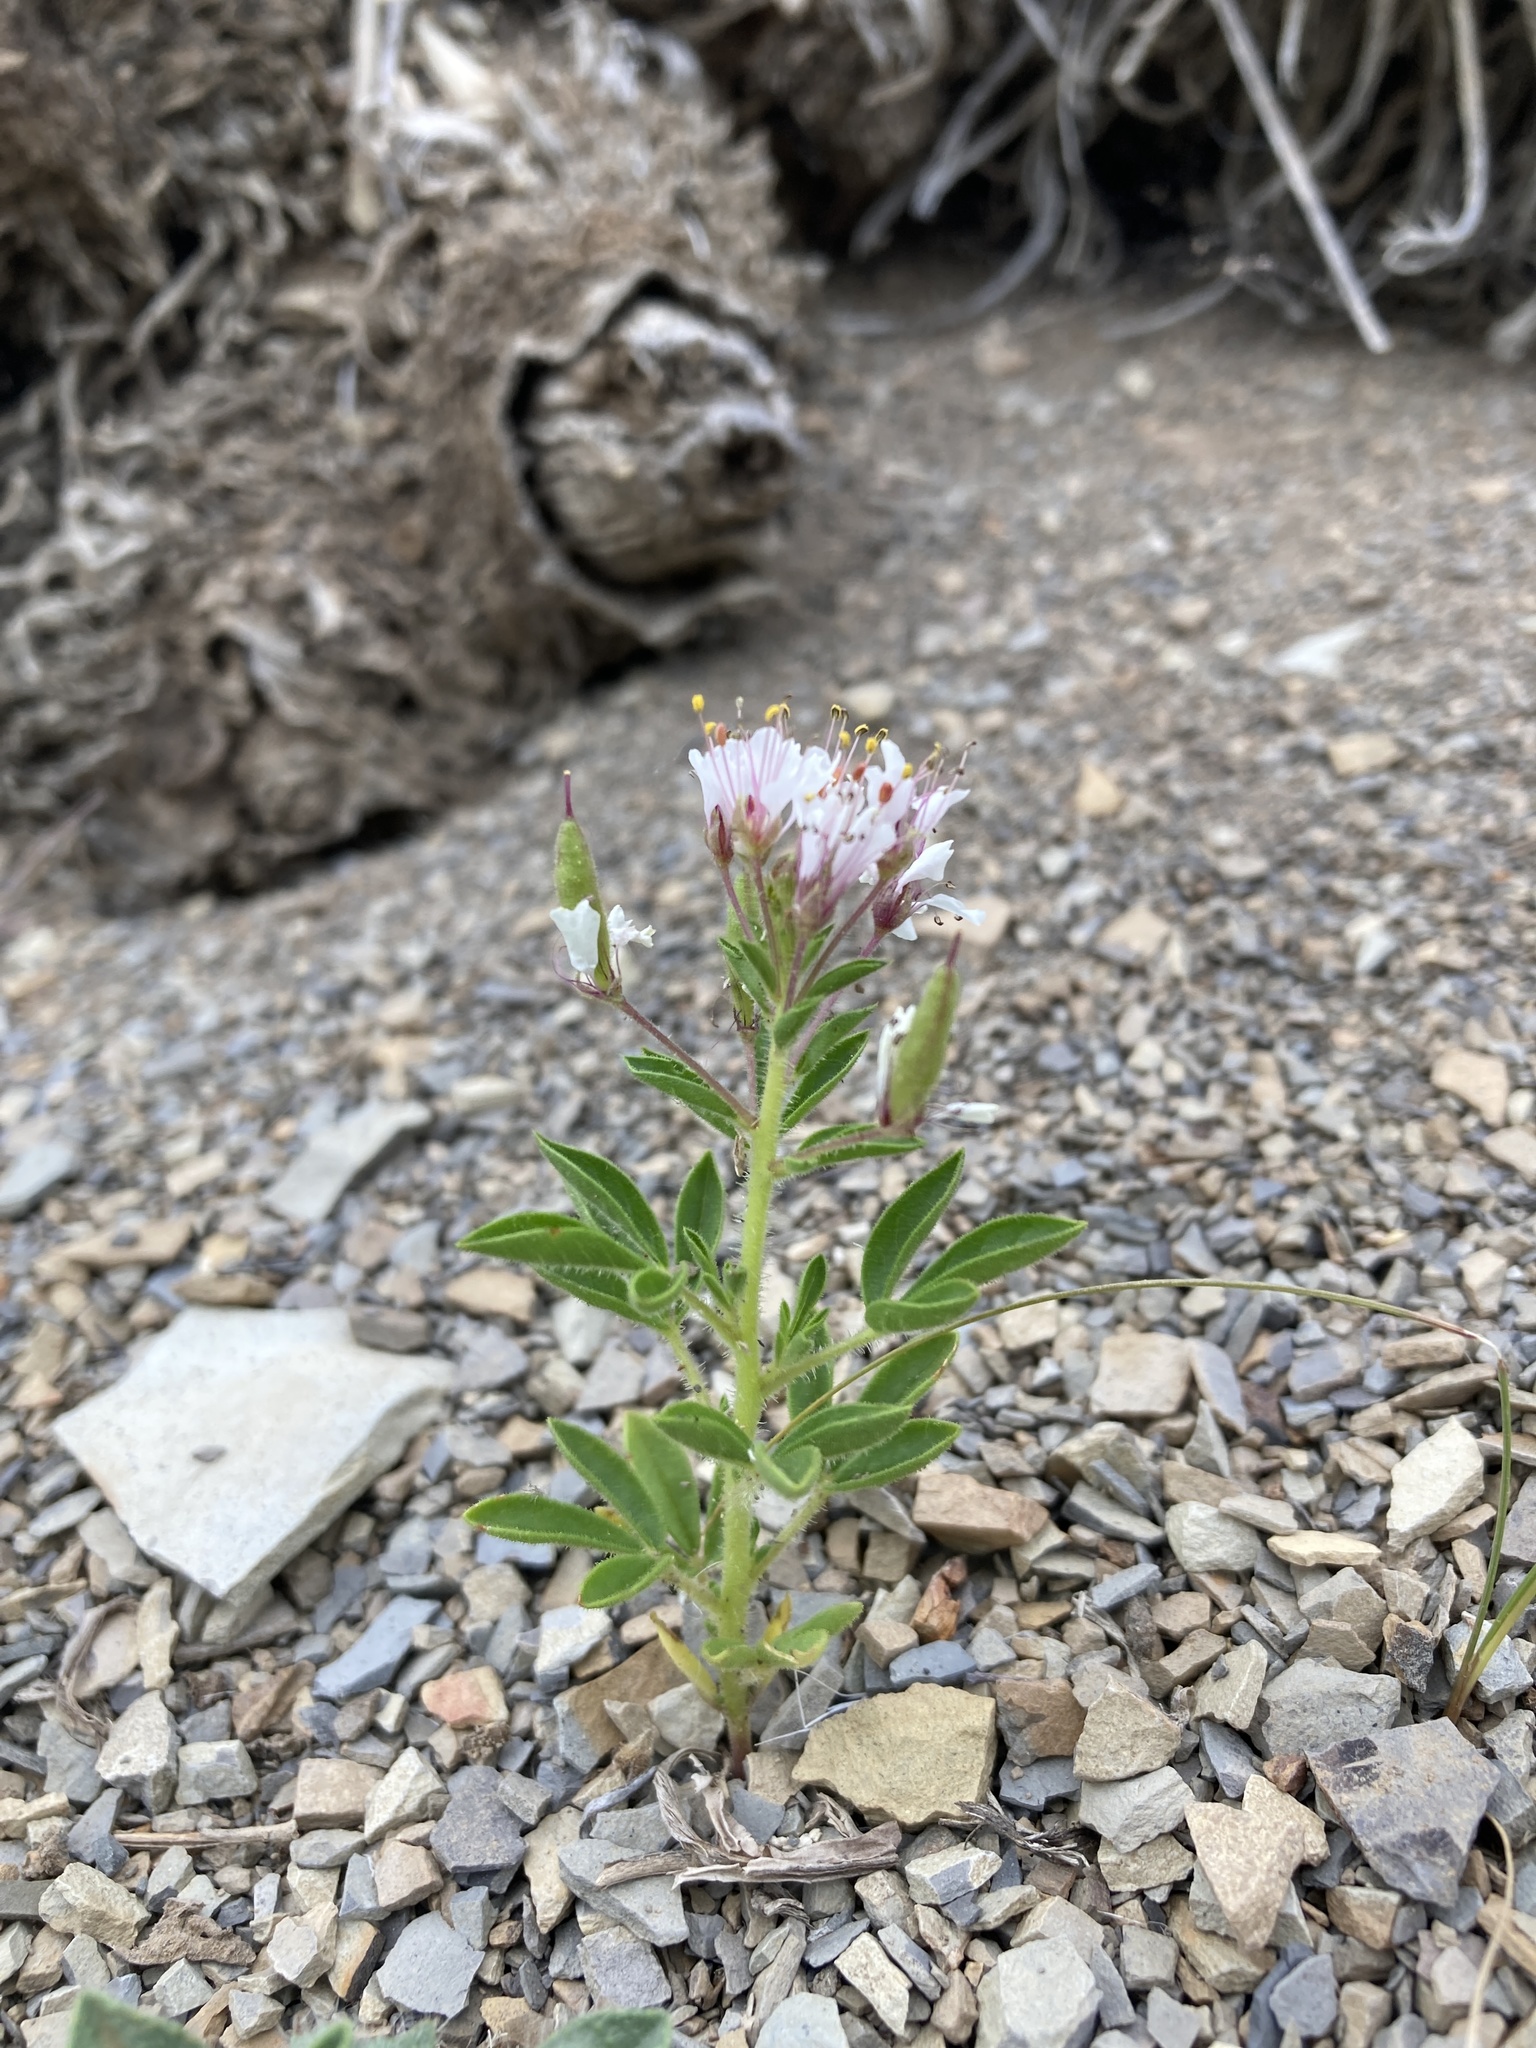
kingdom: Plantae
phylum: Tracheophyta
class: Magnoliopsida
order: Brassicales
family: Cleomaceae
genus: Polanisia
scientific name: Polanisia dodecandra
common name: Clammyweed
